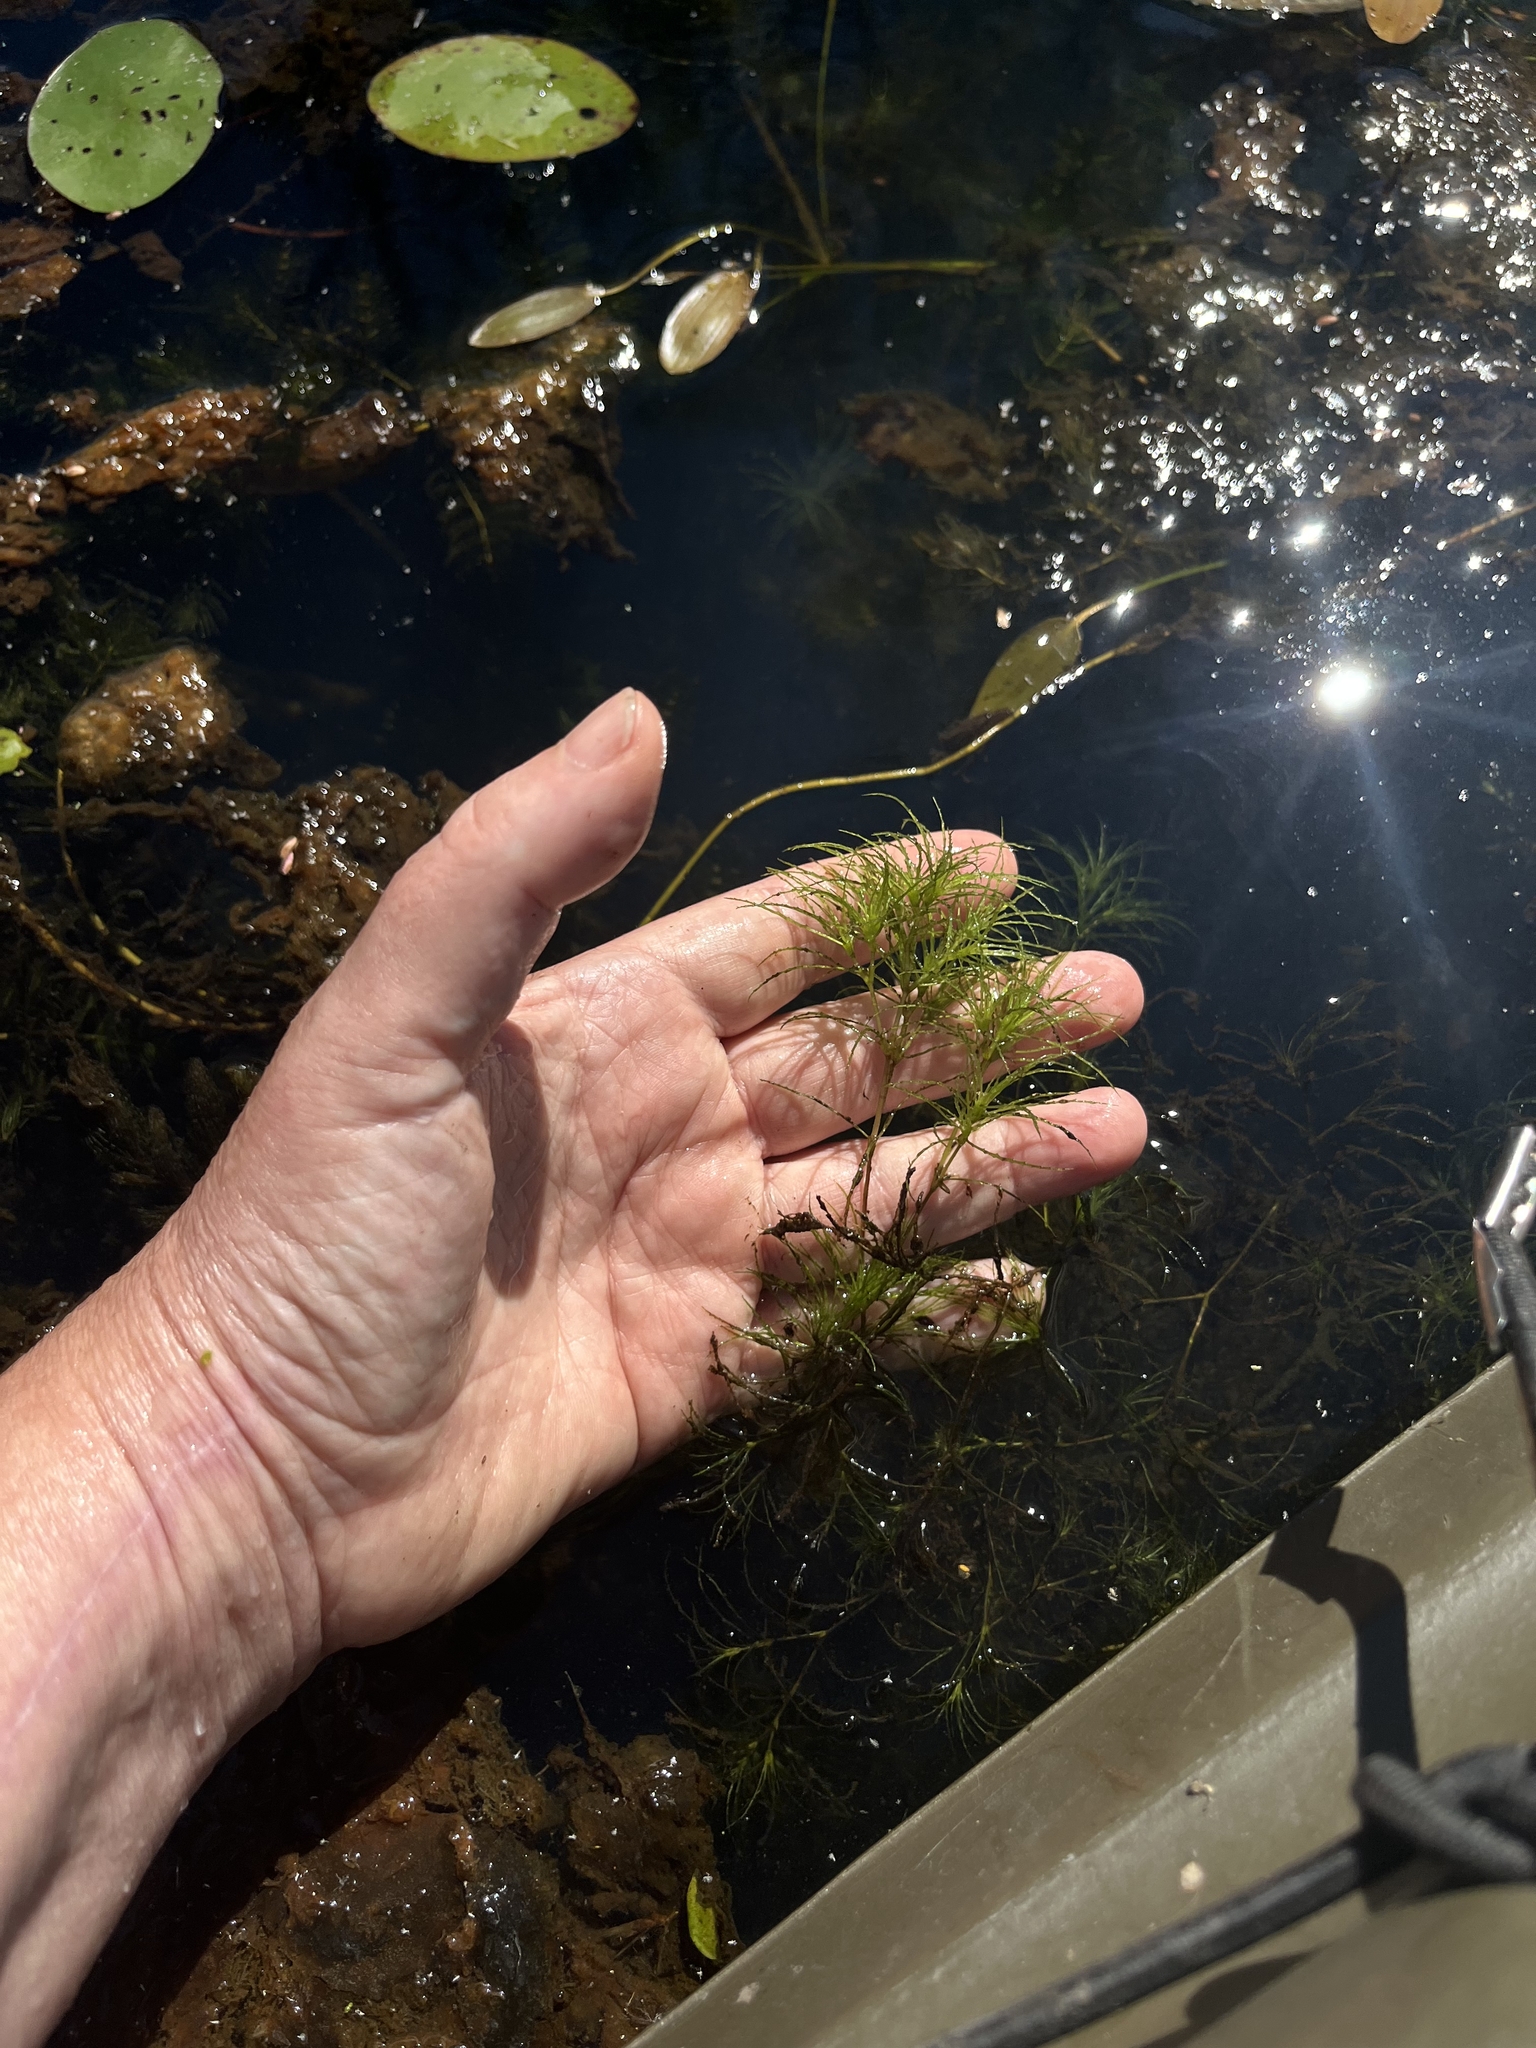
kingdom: Plantae
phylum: Tracheophyta
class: Liliopsida
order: Alismatales
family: Hydrocharitaceae
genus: Najas
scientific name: Najas minor
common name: Brittle naiad
